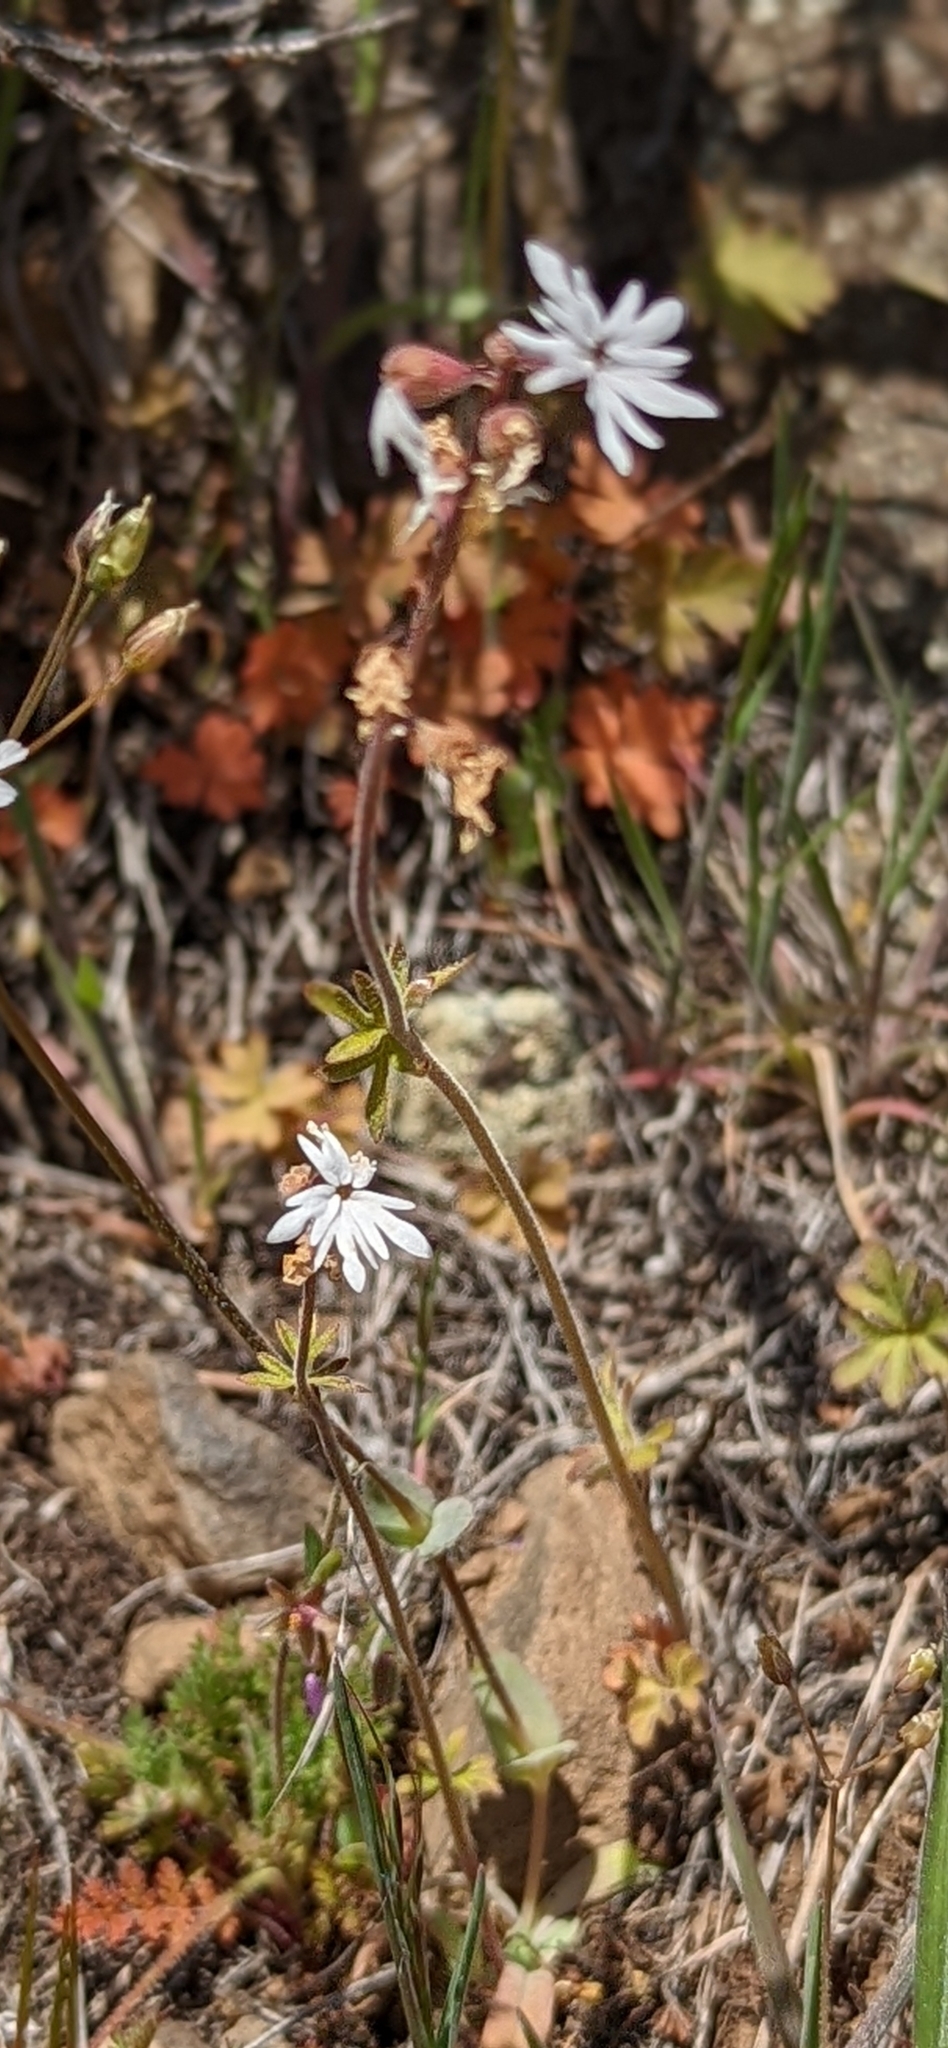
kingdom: Plantae
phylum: Tracheophyta
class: Magnoliopsida
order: Saxifragales
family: Saxifragaceae
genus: Lithophragma
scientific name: Lithophragma parviflorum
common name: Small-flowered fringe-cup
